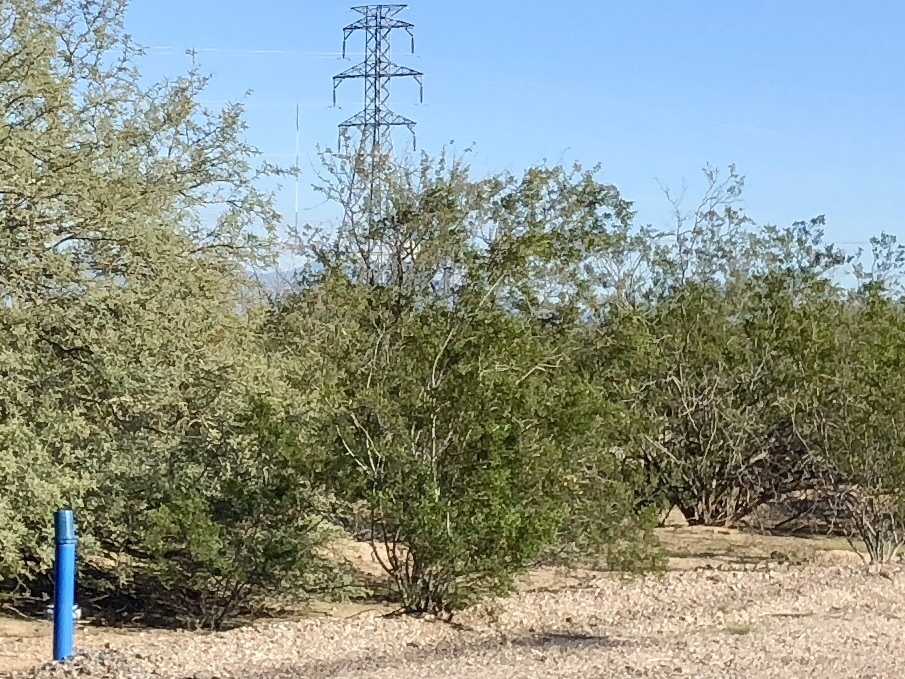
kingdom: Plantae
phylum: Tracheophyta
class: Magnoliopsida
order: Zygophyllales
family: Zygophyllaceae
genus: Larrea
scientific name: Larrea tridentata
